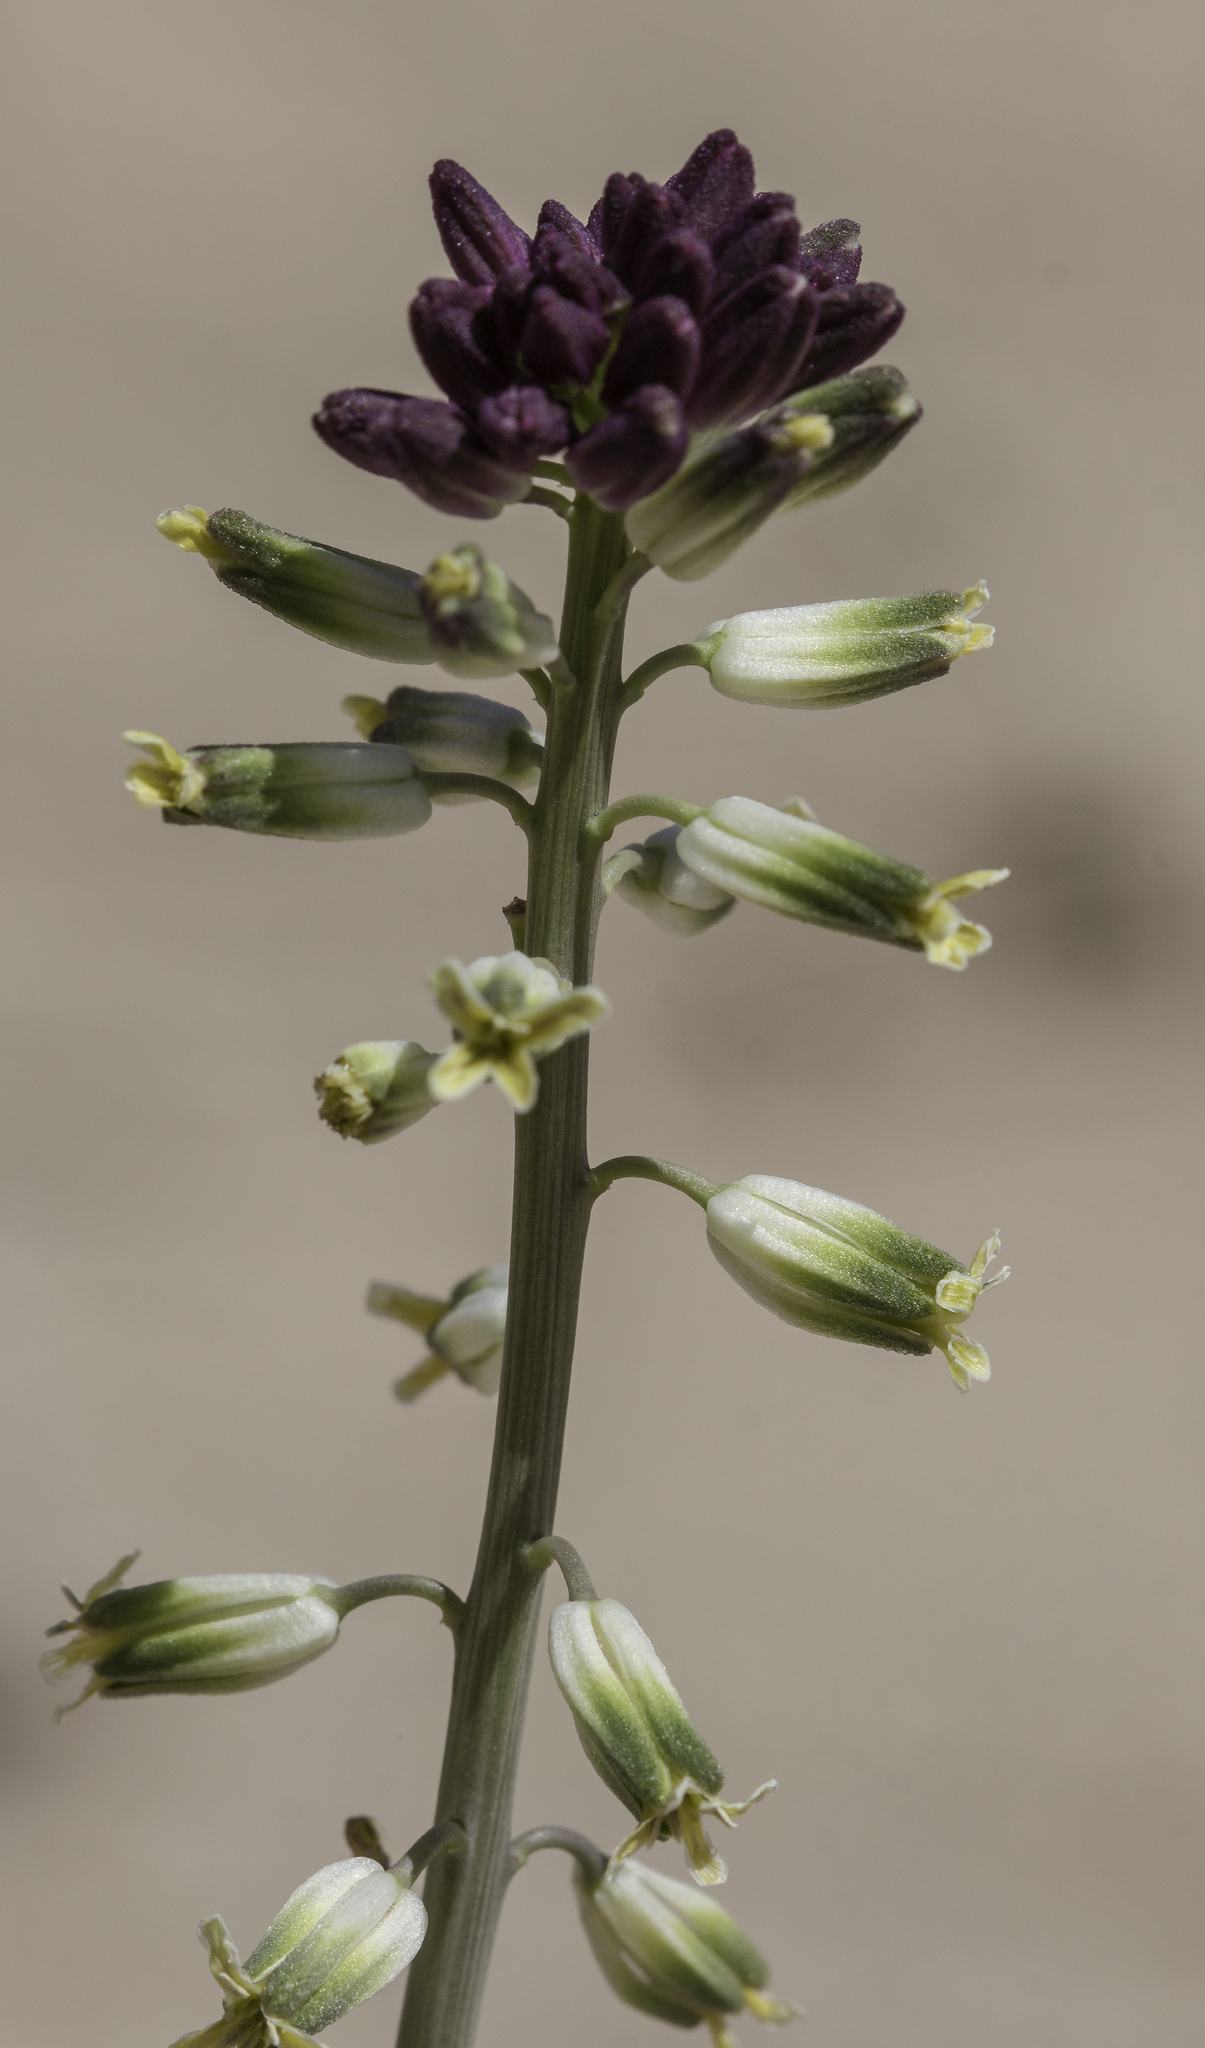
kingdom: Plantae
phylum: Tracheophyta
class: Magnoliopsida
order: Brassicales
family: Brassicaceae
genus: Streptanthus
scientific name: Streptanthus longirostris
